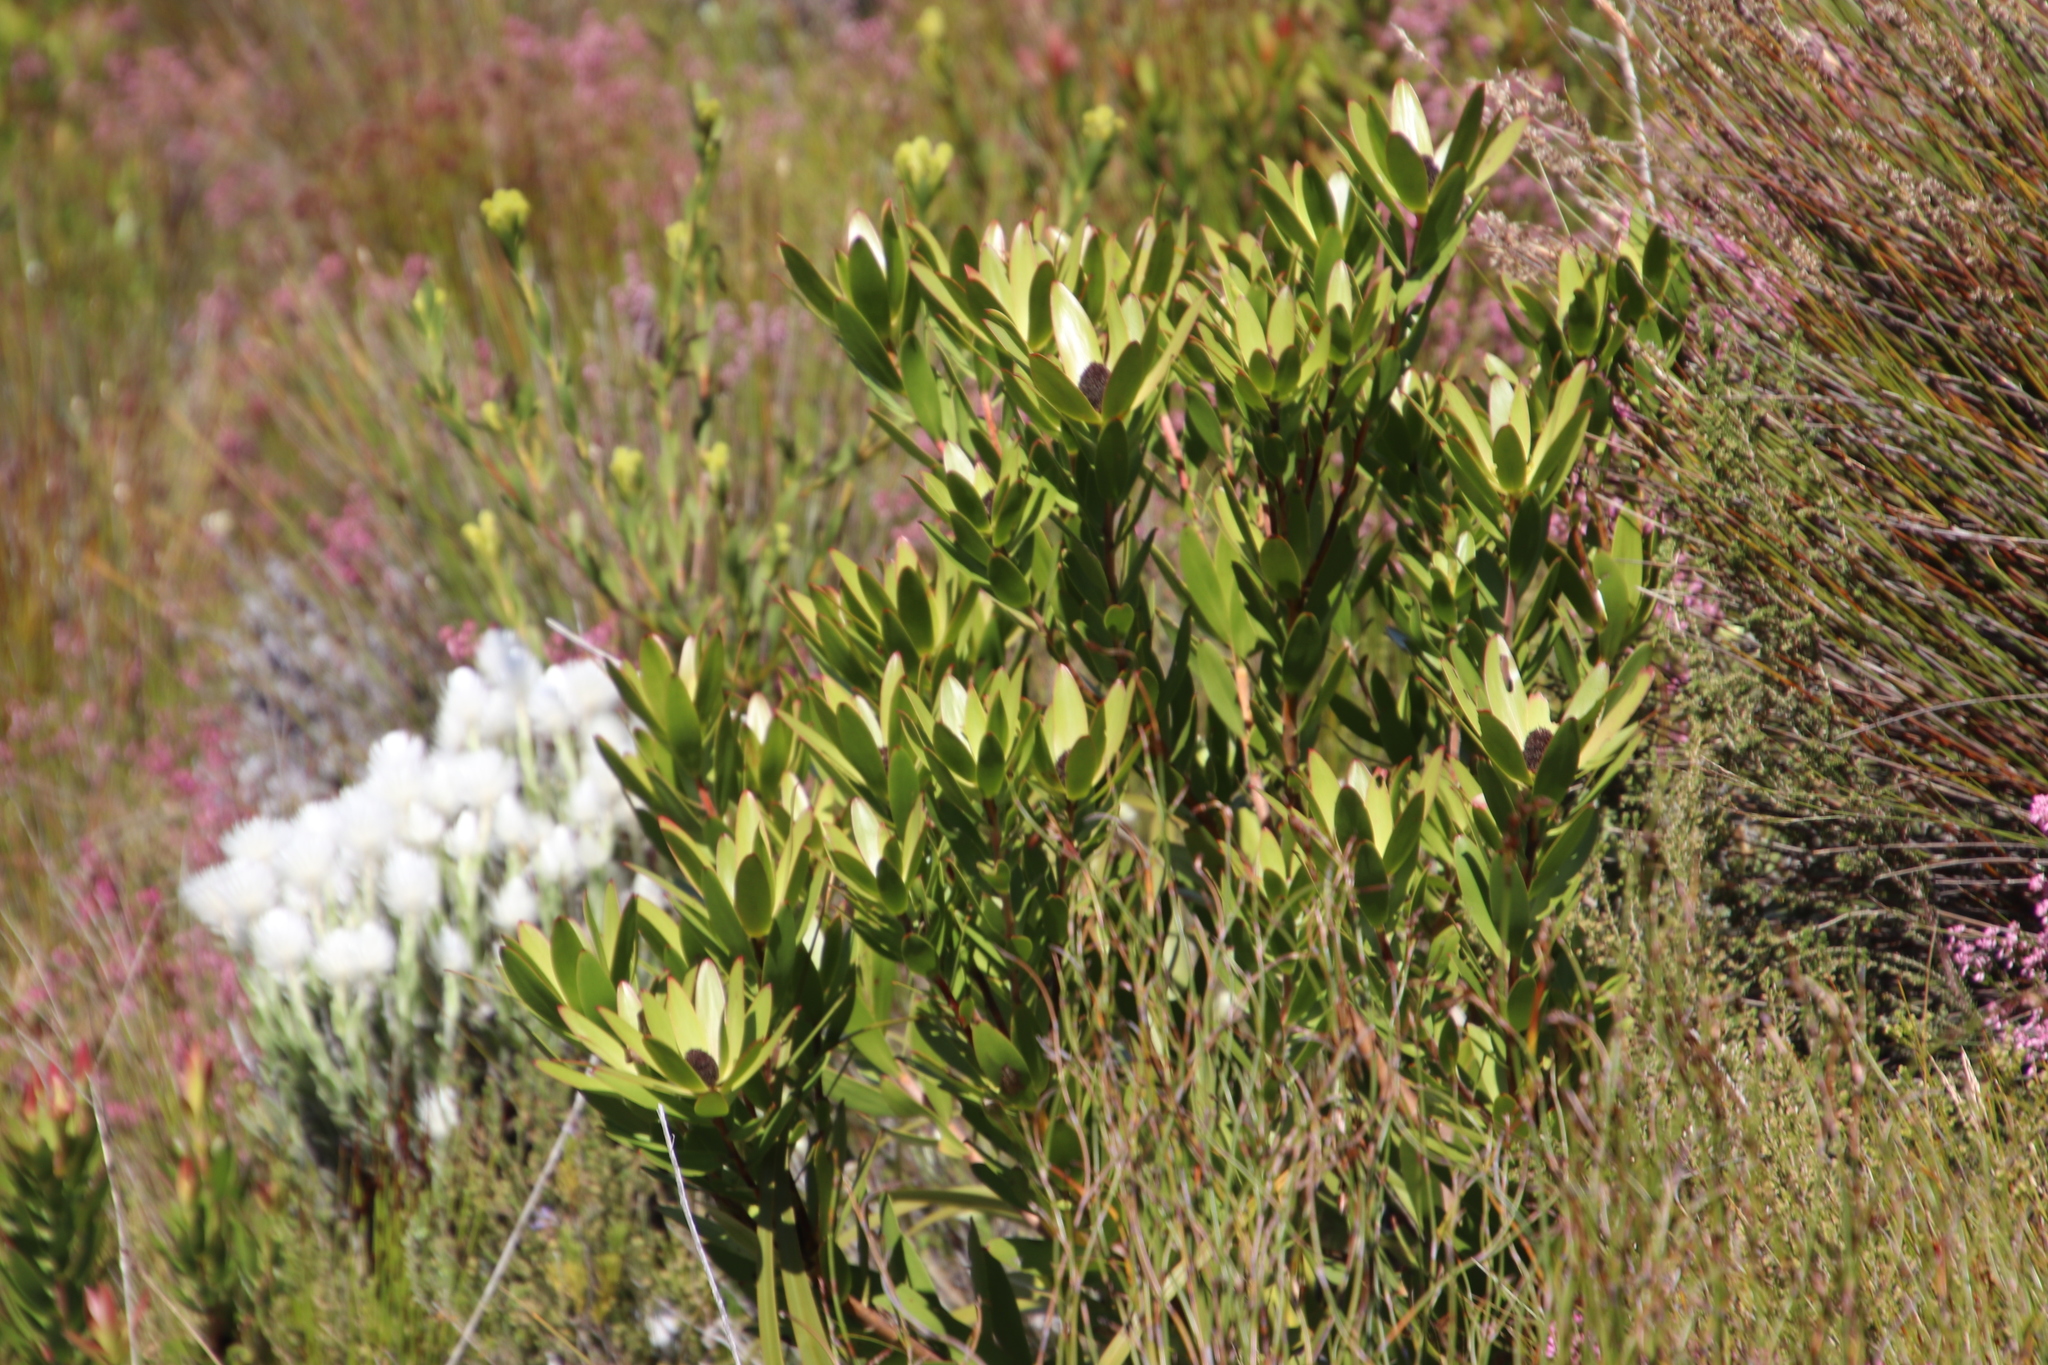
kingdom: Plantae
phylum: Tracheophyta
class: Magnoliopsida
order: Proteales
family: Proteaceae
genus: Leucadendron
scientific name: Leucadendron gandogeri
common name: Broad-leaf conebush
